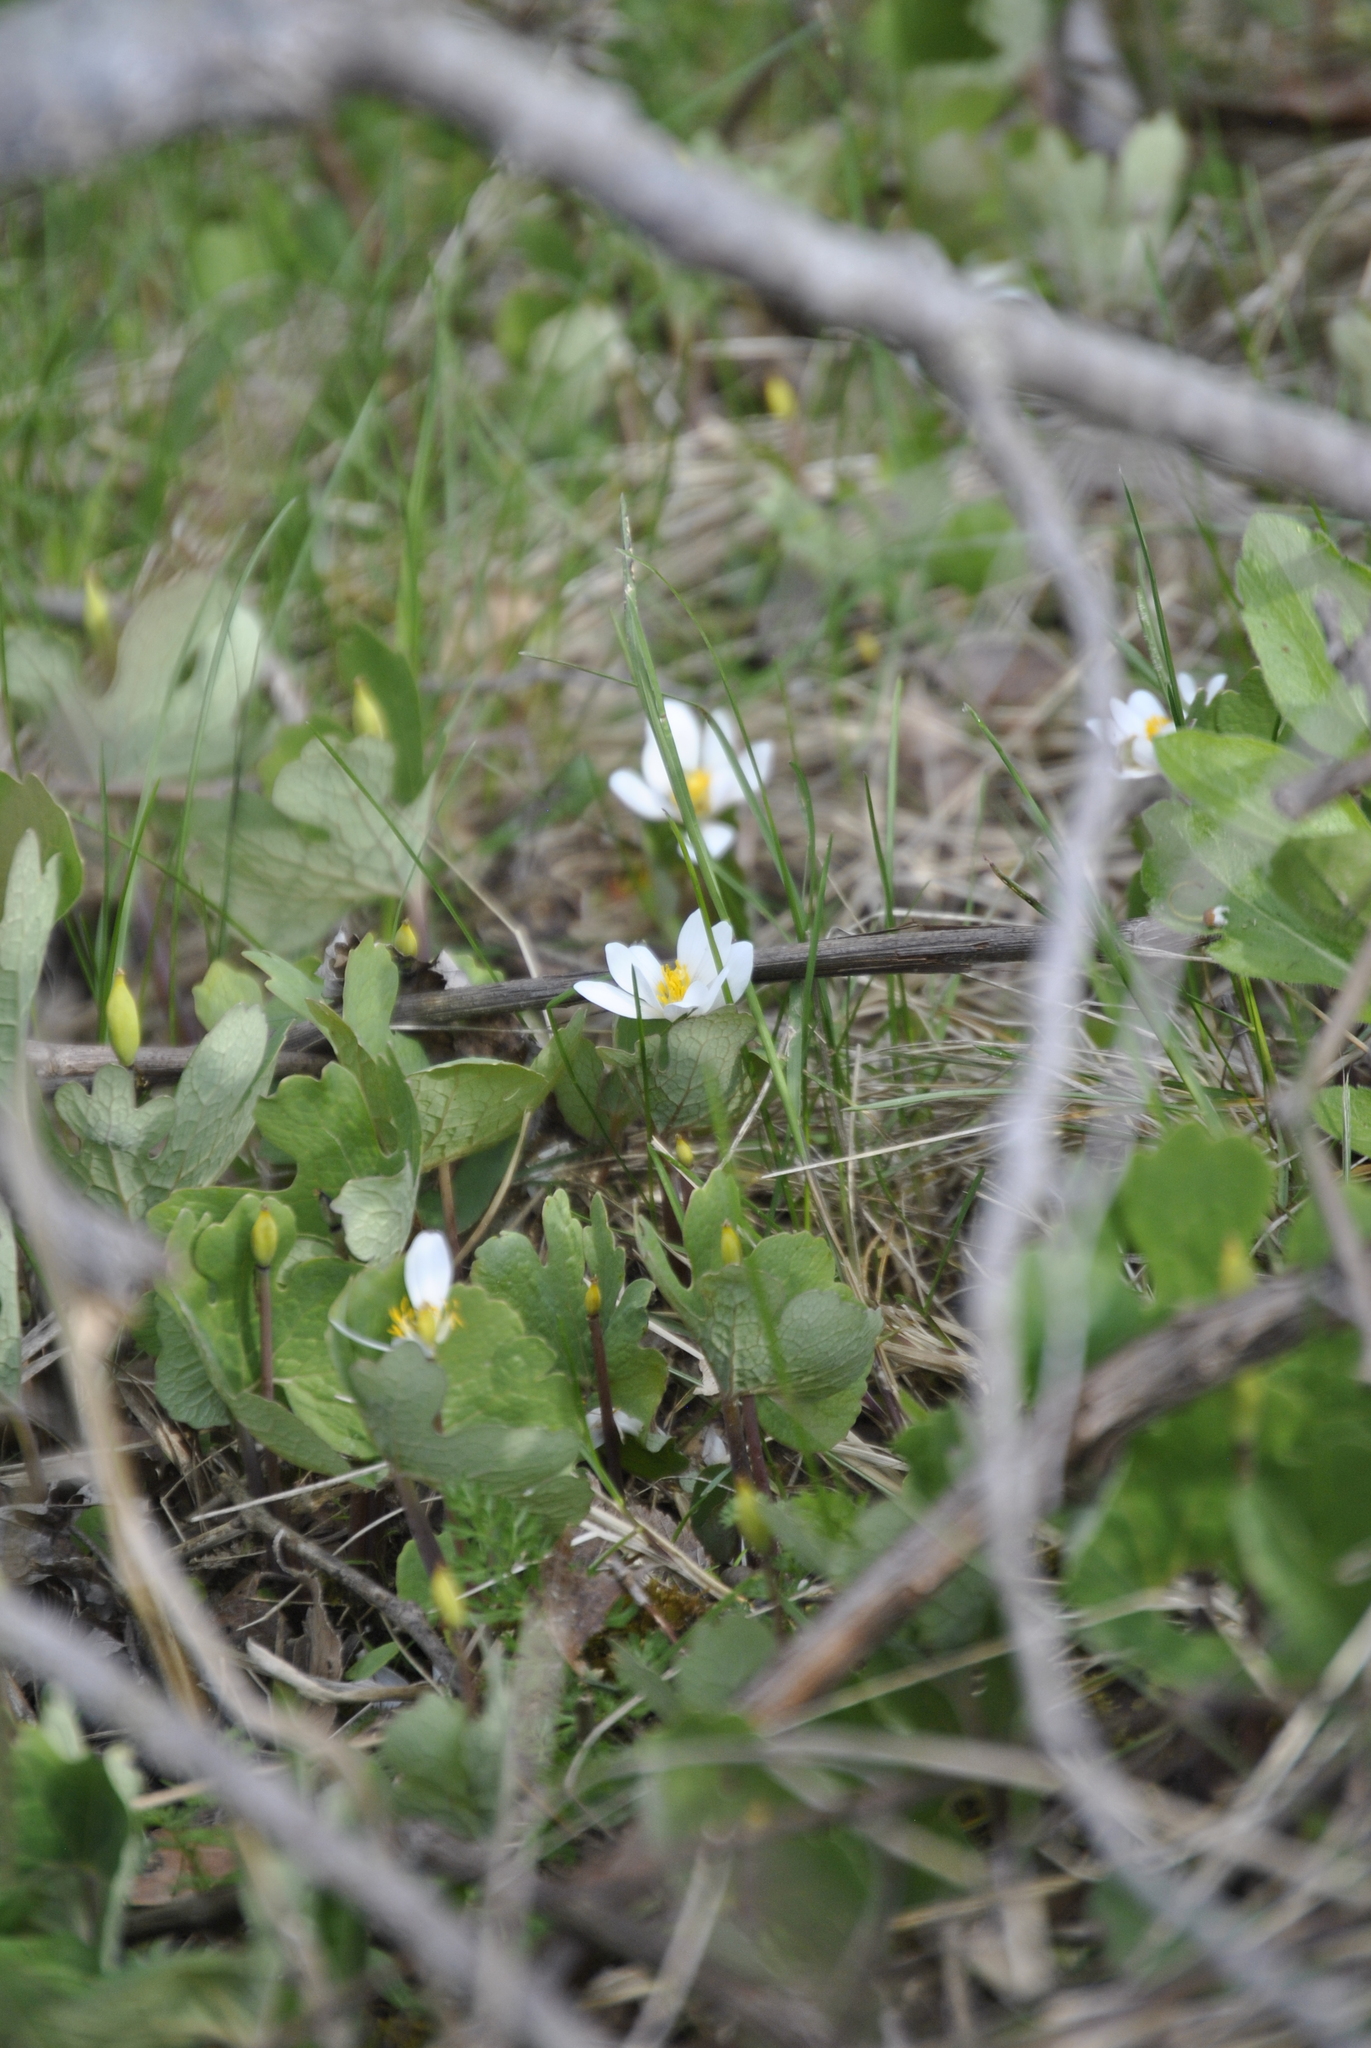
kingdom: Plantae
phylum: Tracheophyta
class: Magnoliopsida
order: Ranunculales
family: Papaveraceae
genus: Sanguinaria
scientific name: Sanguinaria canadensis
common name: Bloodroot
